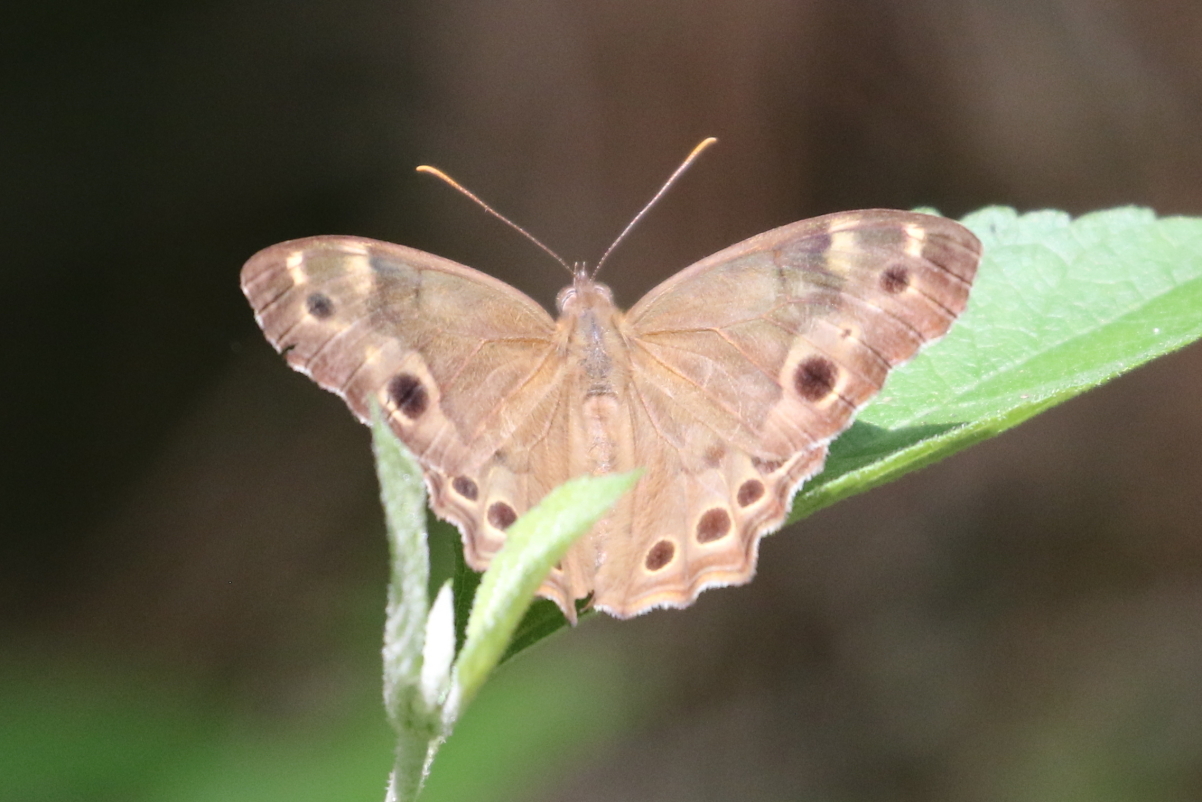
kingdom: Animalia
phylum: Arthropoda
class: Insecta
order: Lepidoptera
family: Nymphalidae
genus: Enodia
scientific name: Enodia portlandia
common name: Southern pearly-eye
